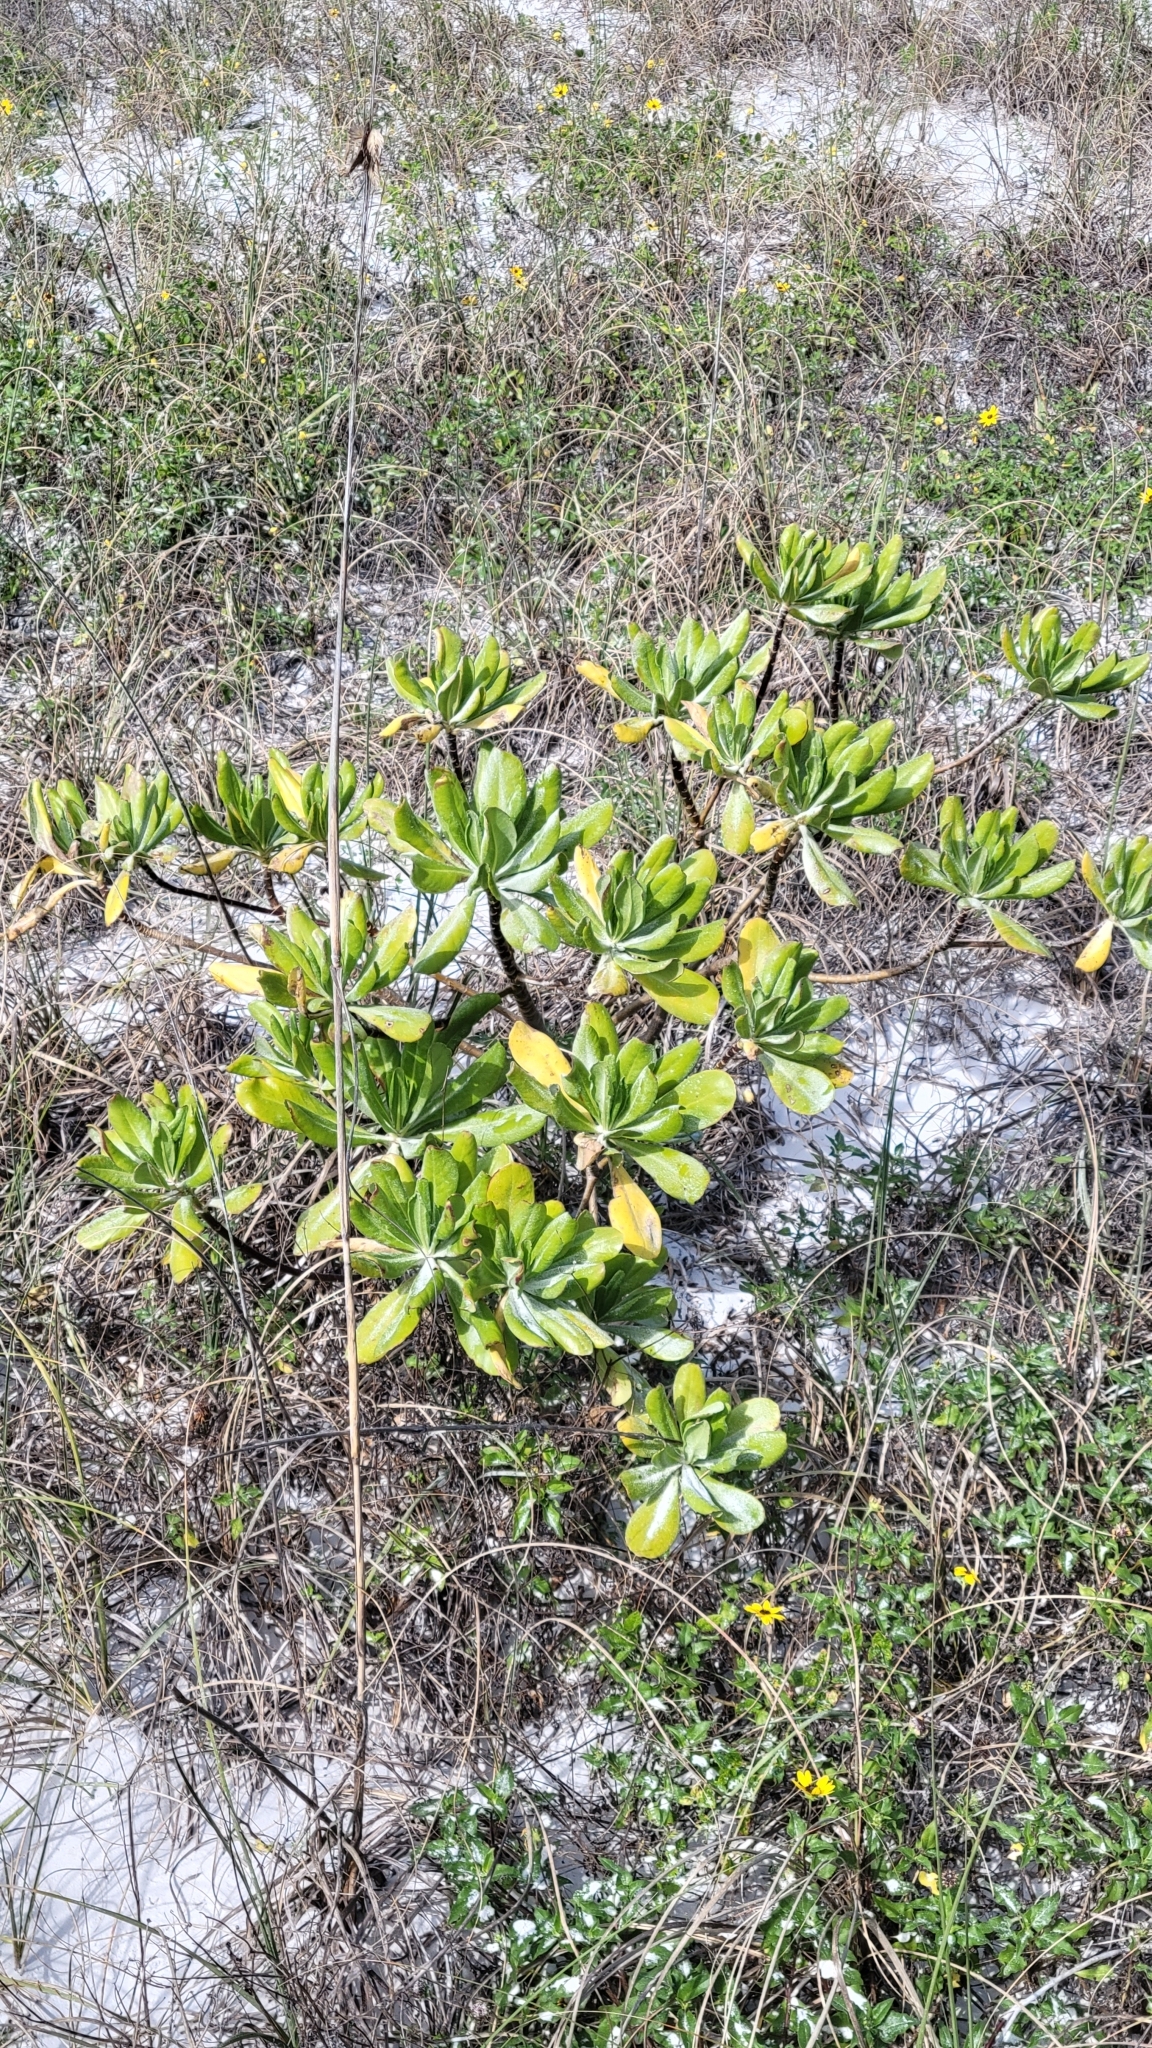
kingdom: Plantae
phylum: Tracheophyta
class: Magnoliopsida
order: Asterales
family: Goodeniaceae
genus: Scaevola
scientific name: Scaevola taccada
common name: Sea lettucetree
